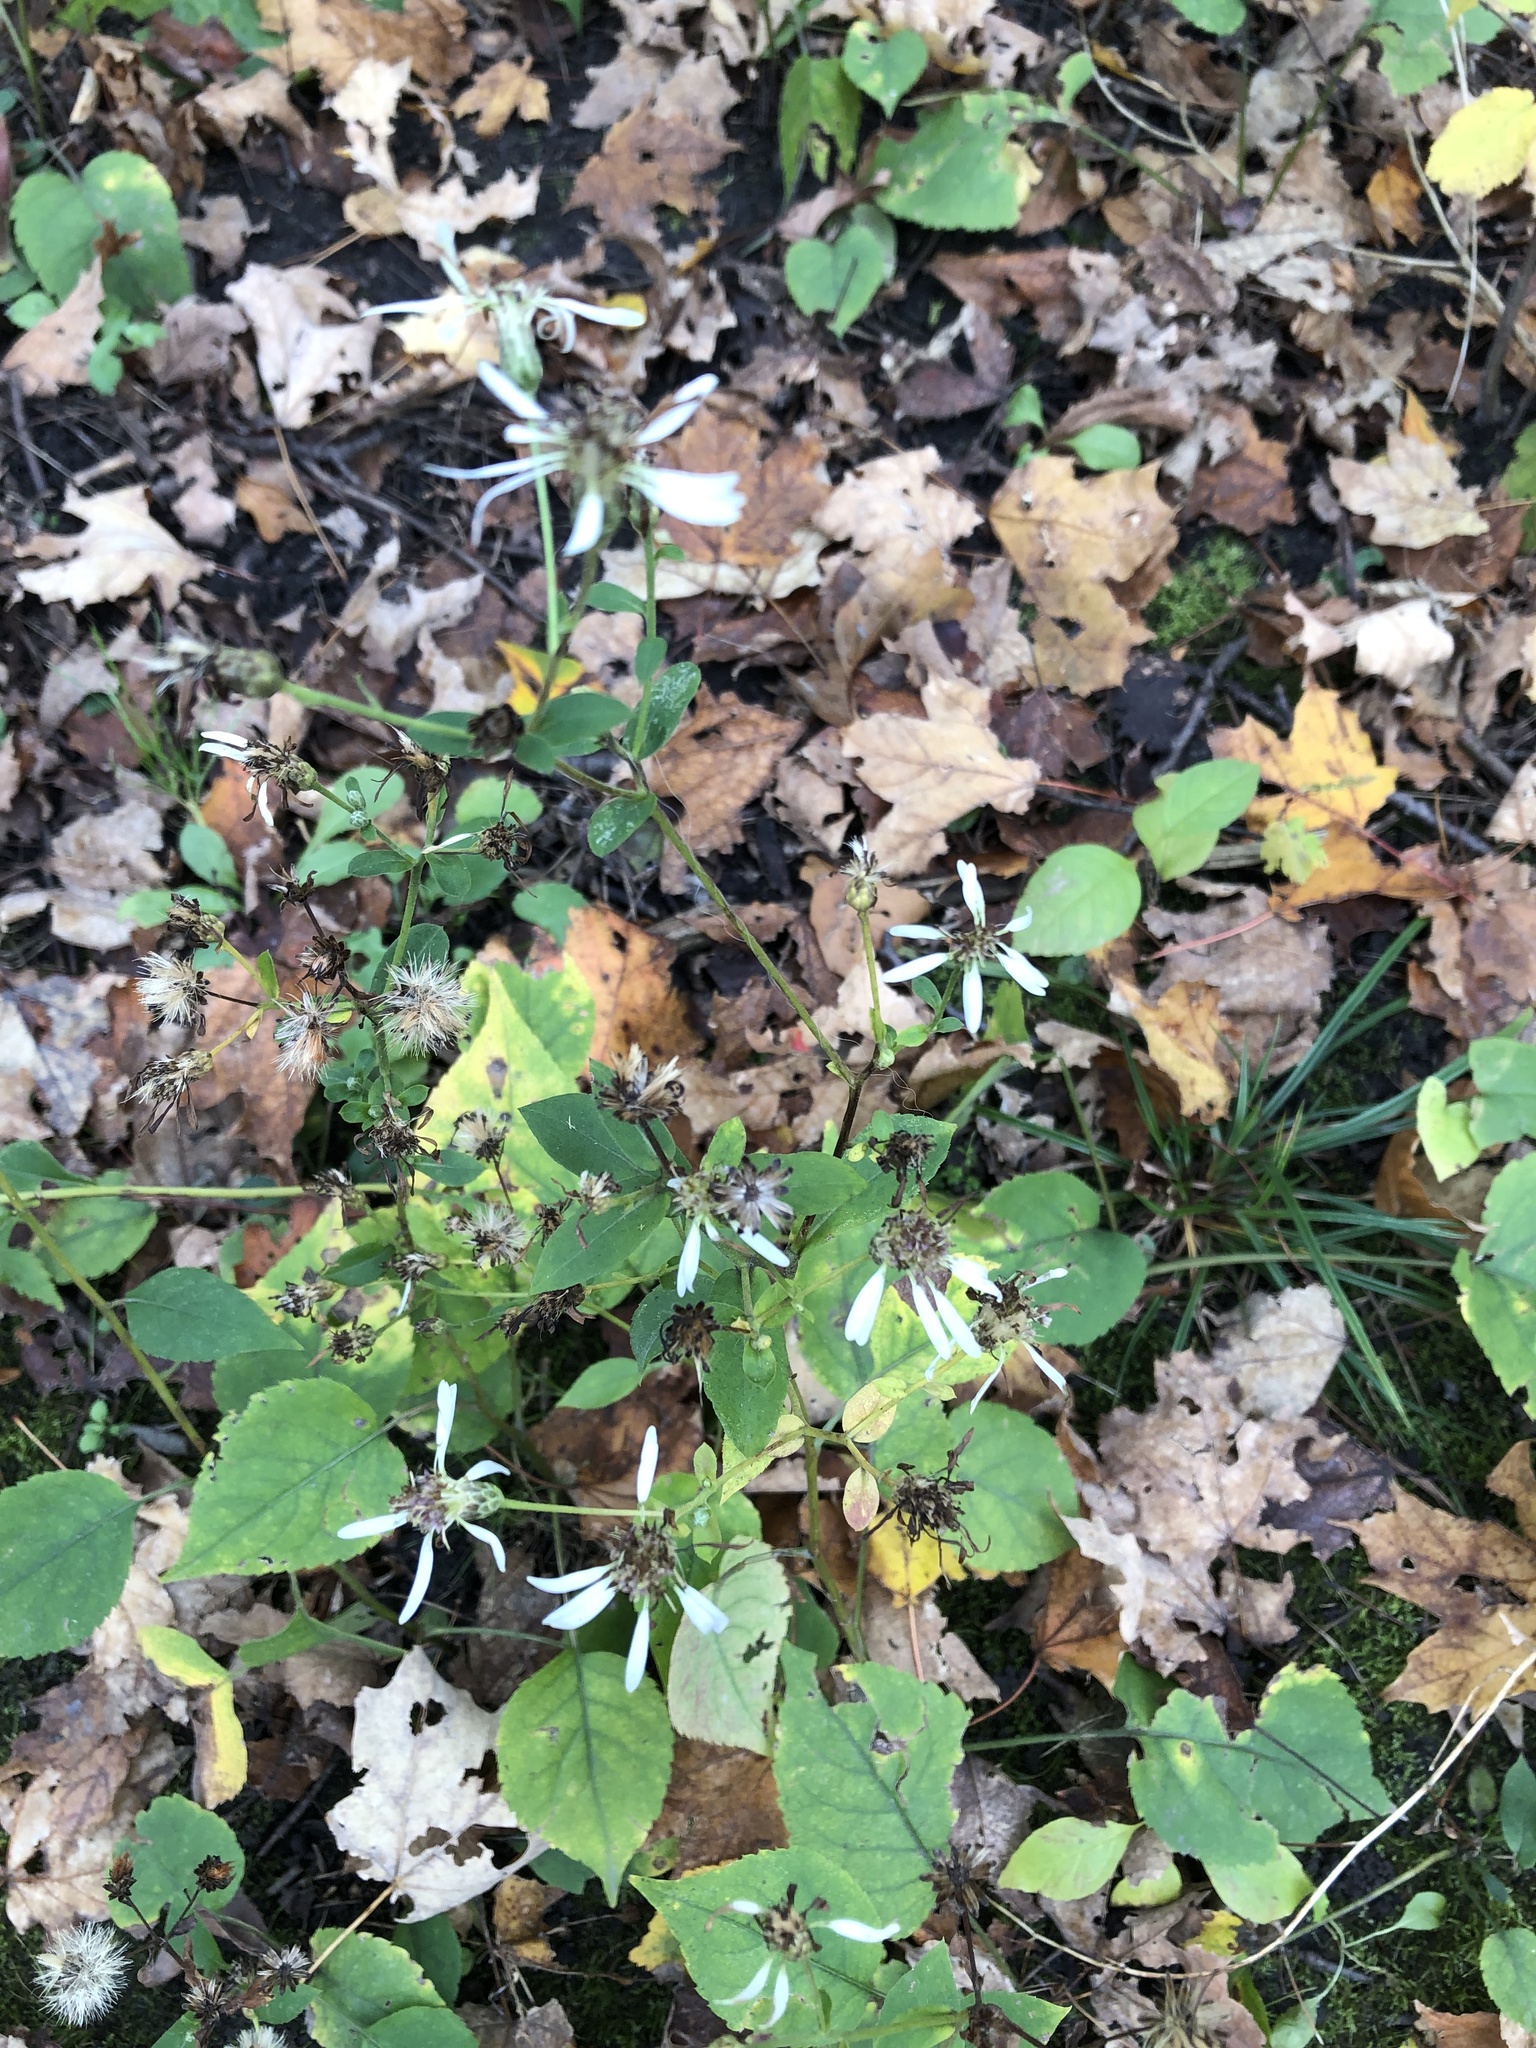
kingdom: Plantae
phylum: Tracheophyta
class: Magnoliopsida
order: Asterales
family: Asteraceae
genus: Eurybia
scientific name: Eurybia macrophylla
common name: Big-leaved aster
